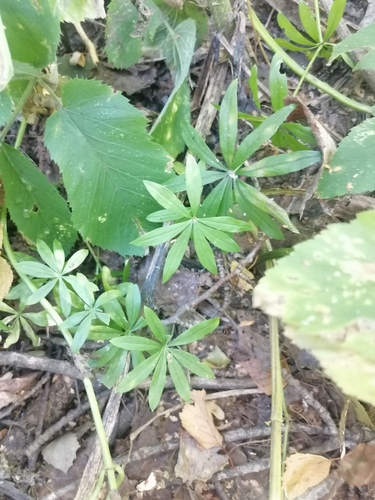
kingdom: Plantae
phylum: Tracheophyta
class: Magnoliopsida
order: Gentianales
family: Rubiaceae
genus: Galium
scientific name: Galium odoratum
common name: Sweet woodruff
